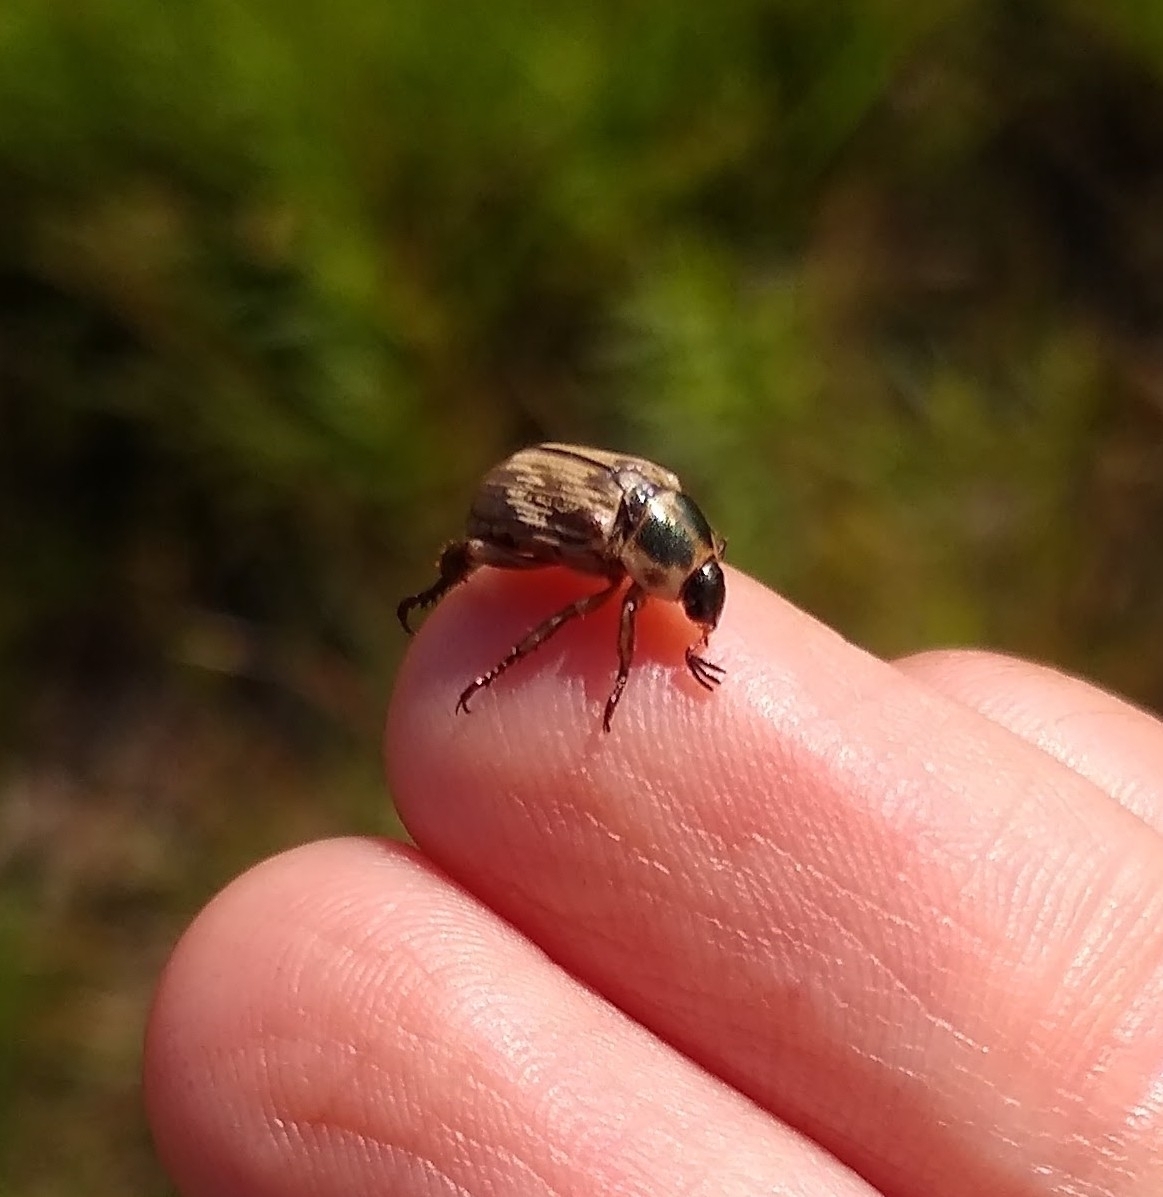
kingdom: Animalia
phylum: Arthropoda
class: Insecta
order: Coleoptera
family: Scarabaeidae
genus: Exomala
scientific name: Exomala orientalis
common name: Oriental beetle
